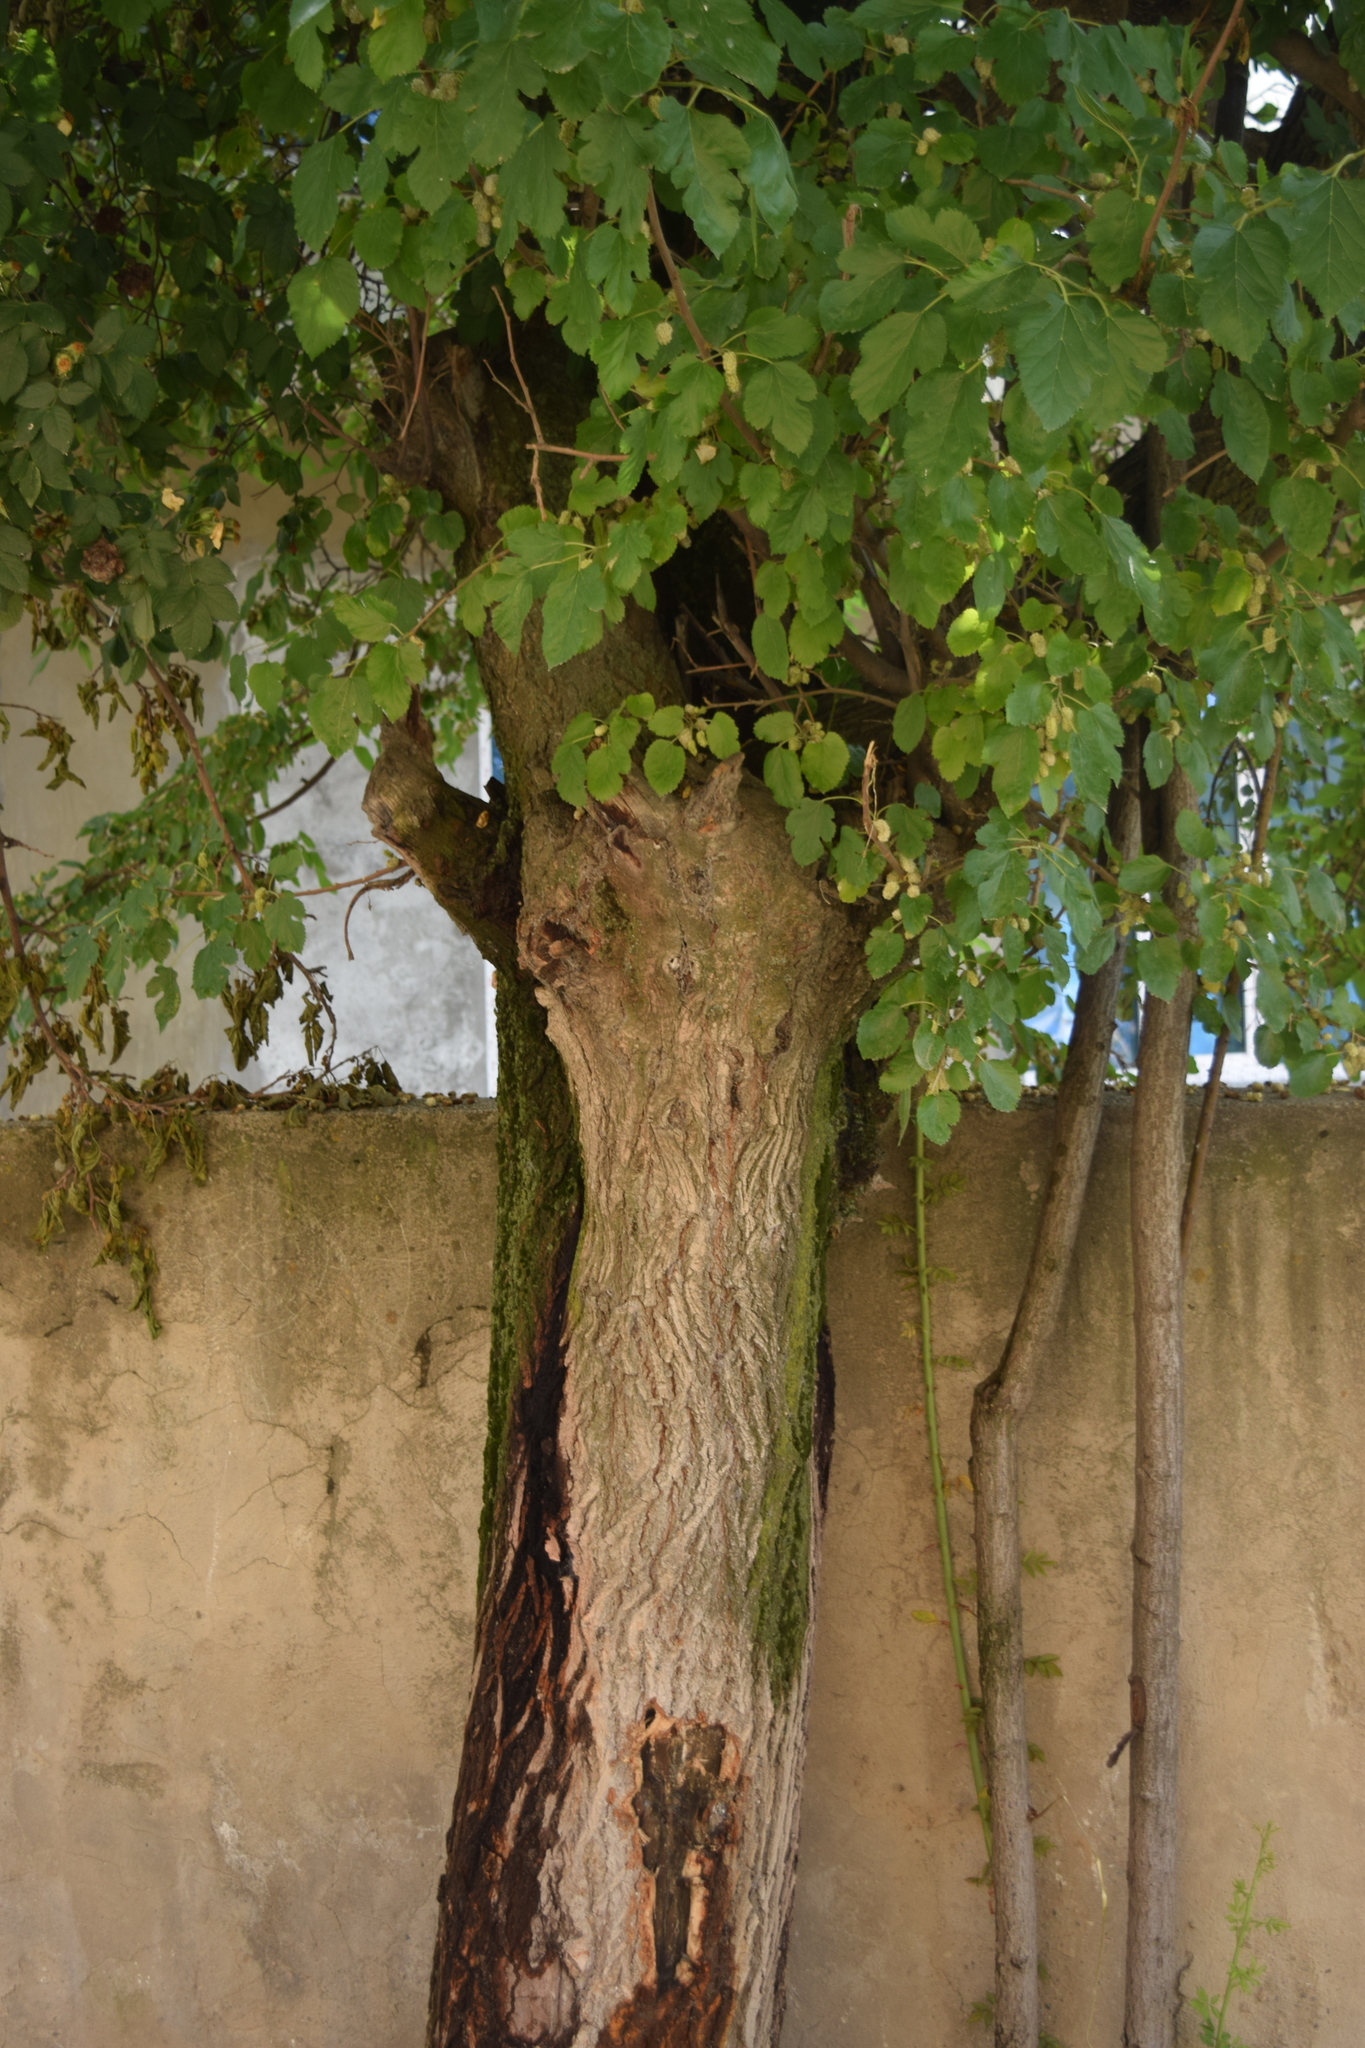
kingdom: Plantae
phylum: Tracheophyta
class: Magnoliopsida
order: Rosales
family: Moraceae
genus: Morus
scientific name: Morus alba
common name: White mulberry
